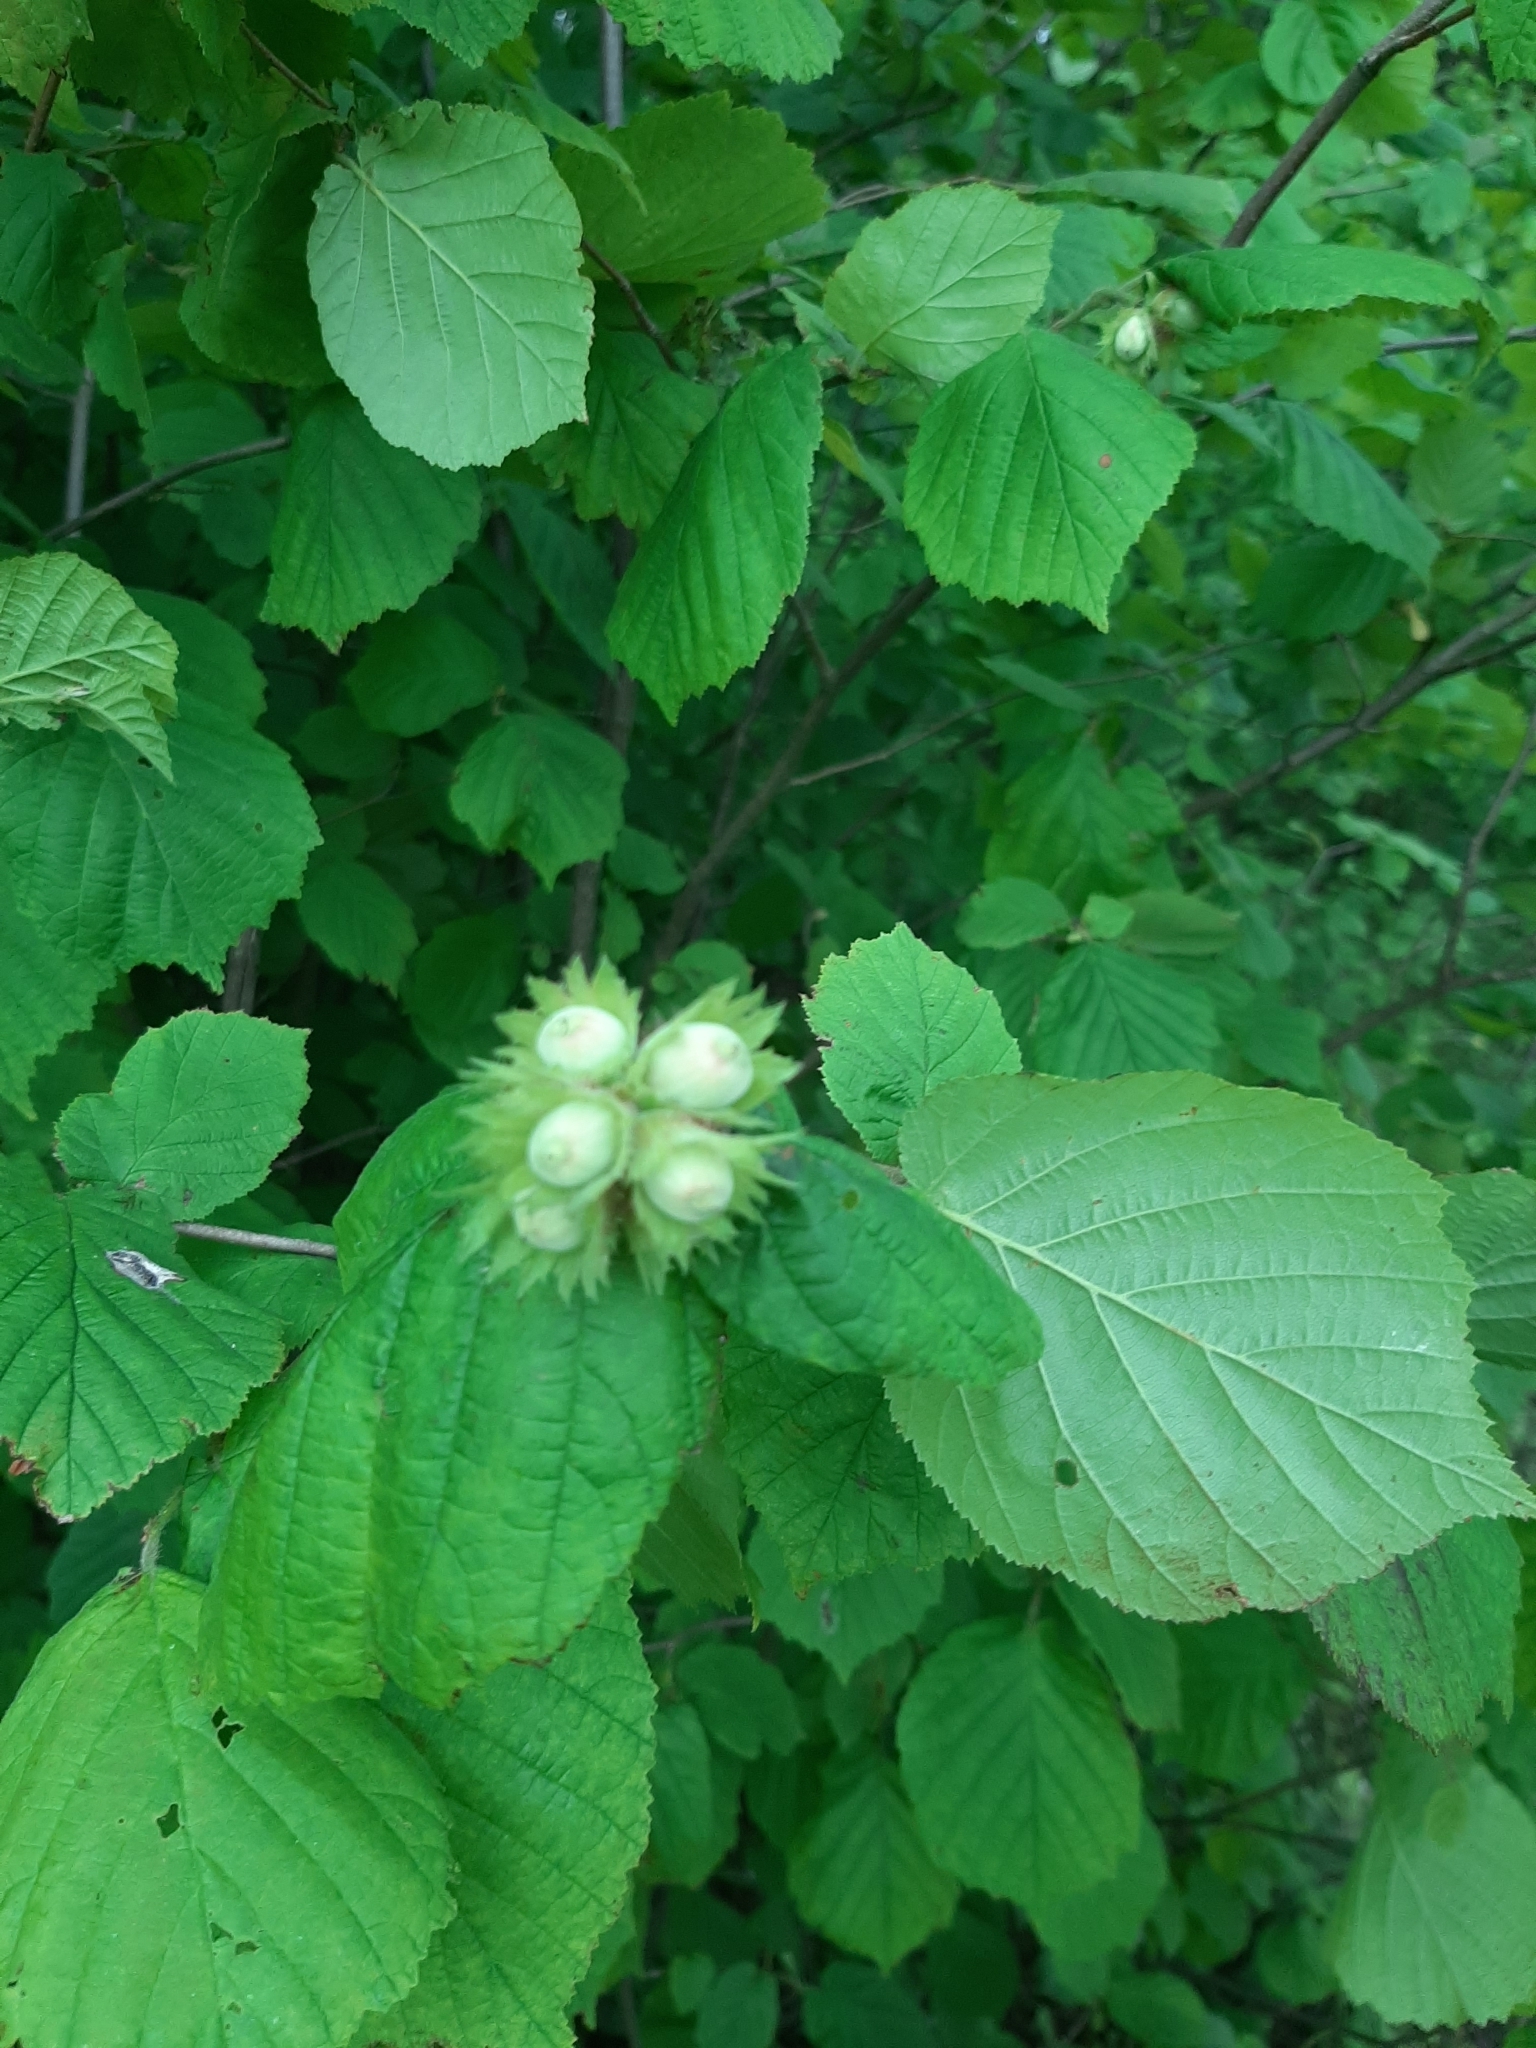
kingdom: Plantae
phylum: Tracheophyta
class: Magnoliopsida
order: Fagales
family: Betulaceae
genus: Corylus
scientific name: Corylus avellana
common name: European hazel
